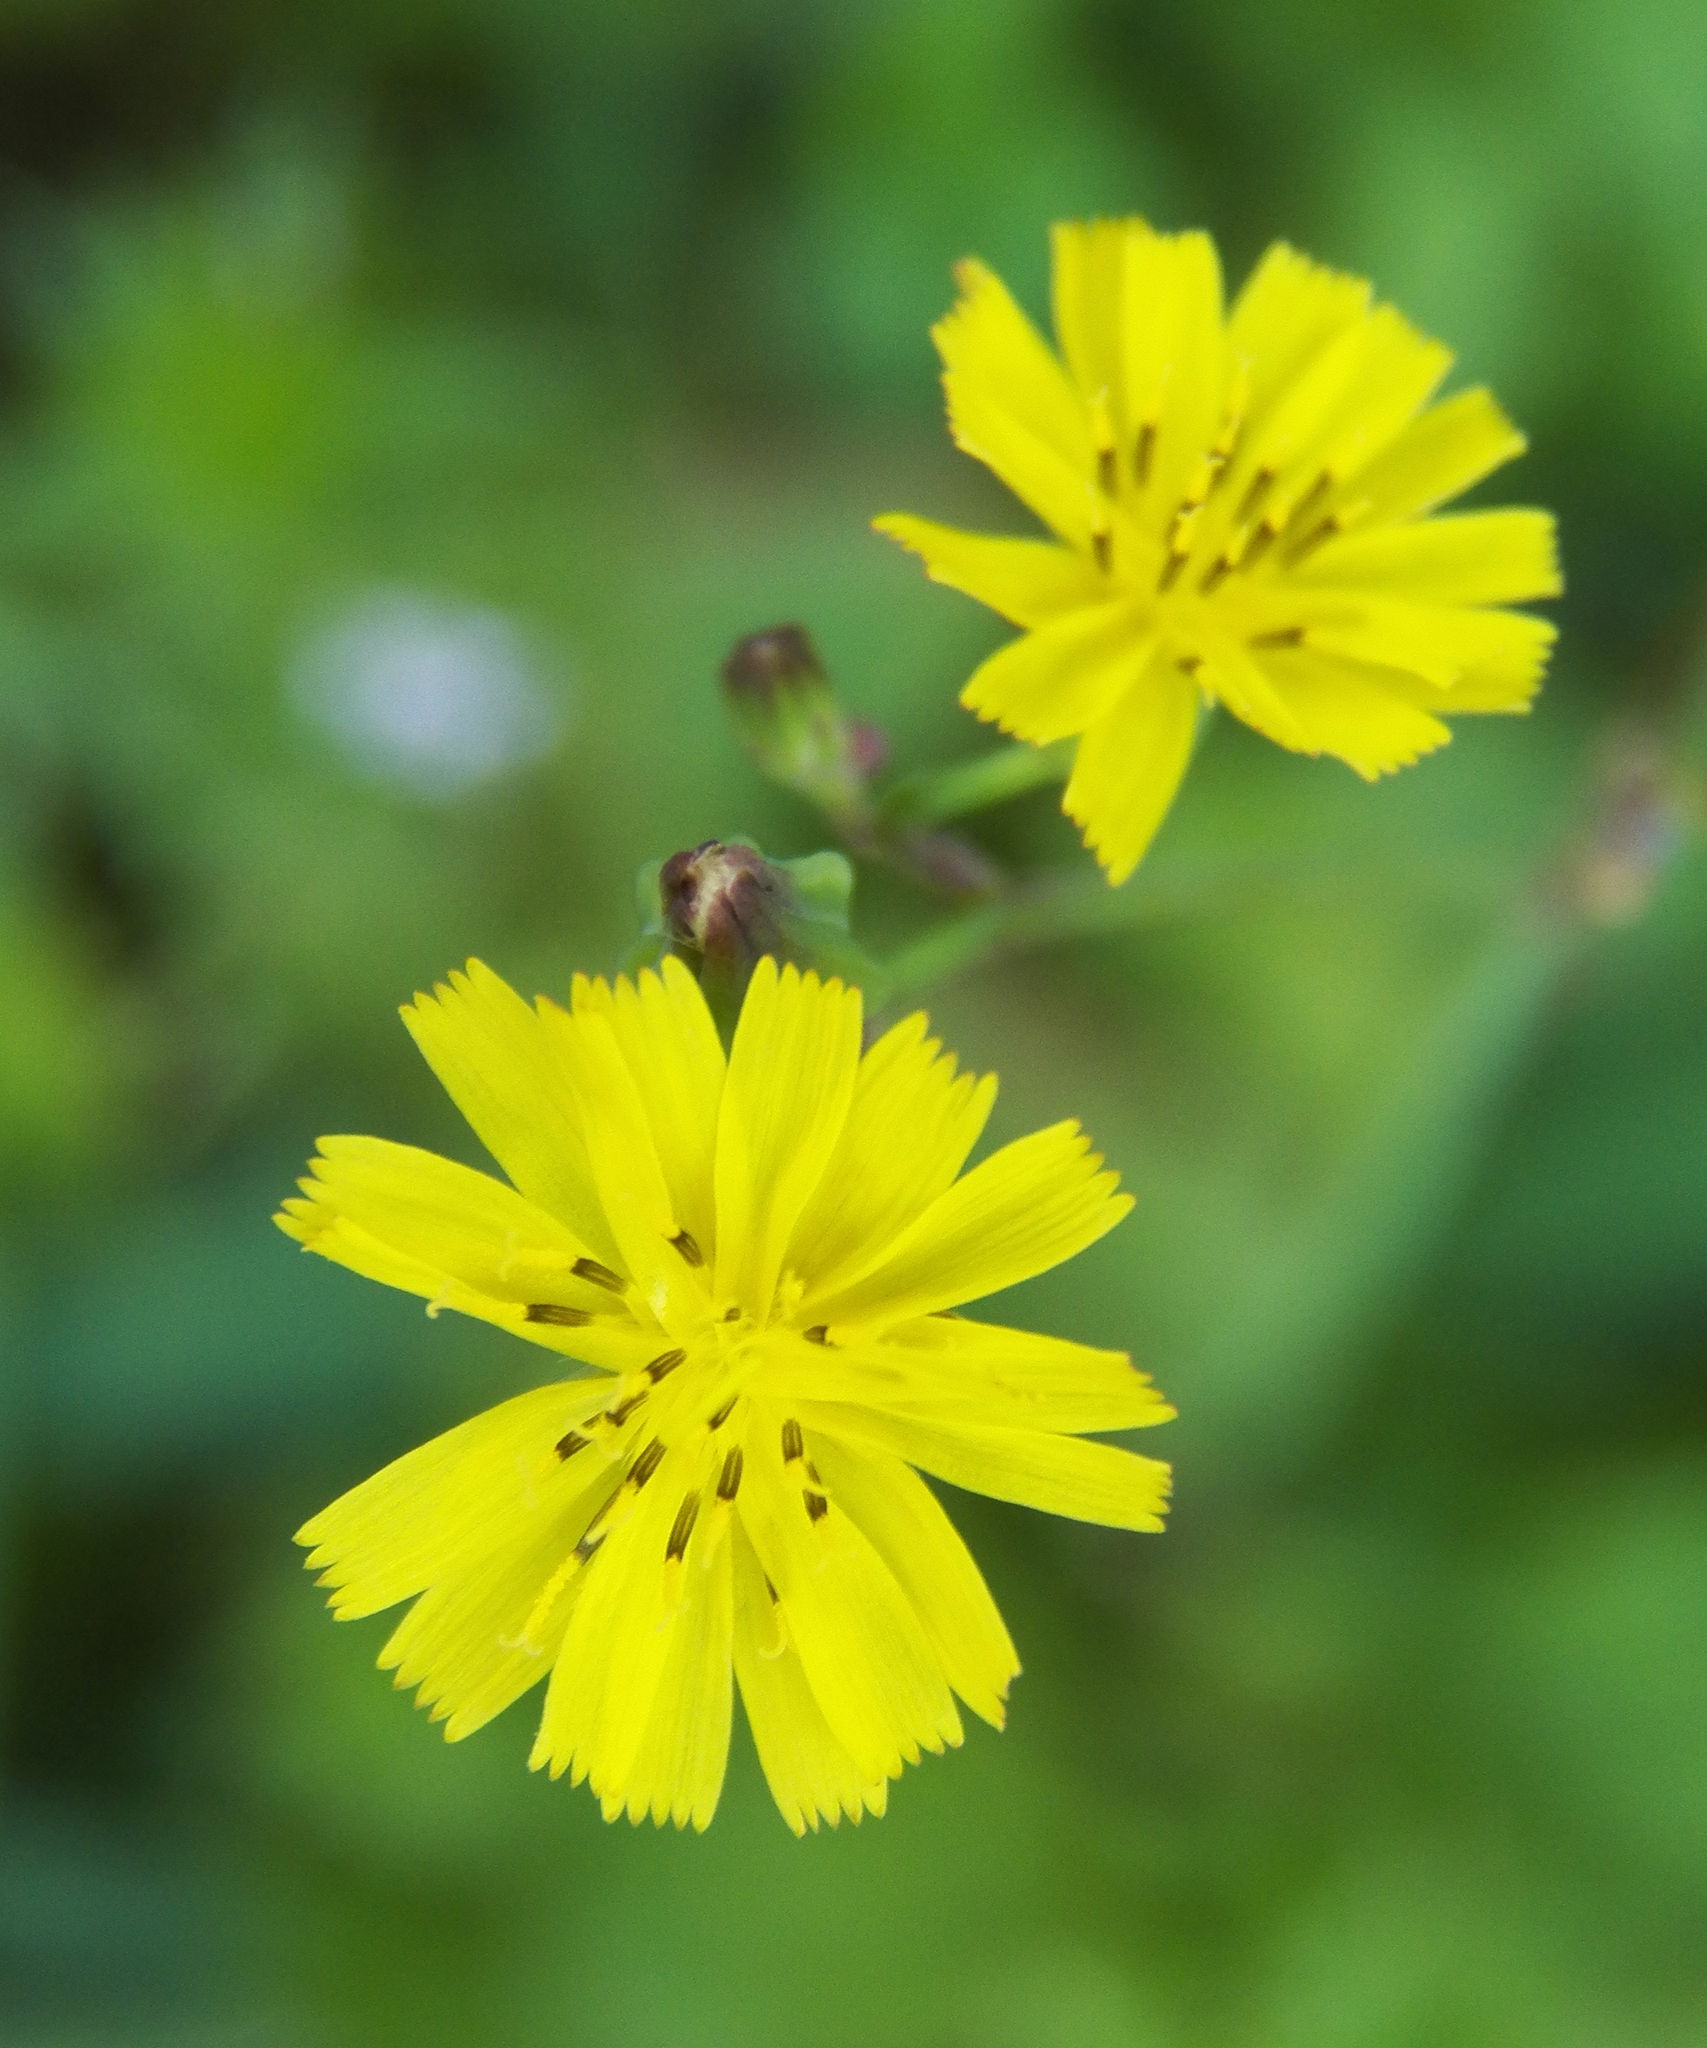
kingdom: Plantae
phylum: Tracheophyta
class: Magnoliopsida
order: Asterales
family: Asteraceae
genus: Youngia
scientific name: Youngia japonica
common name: Oriental false hawksbeard
